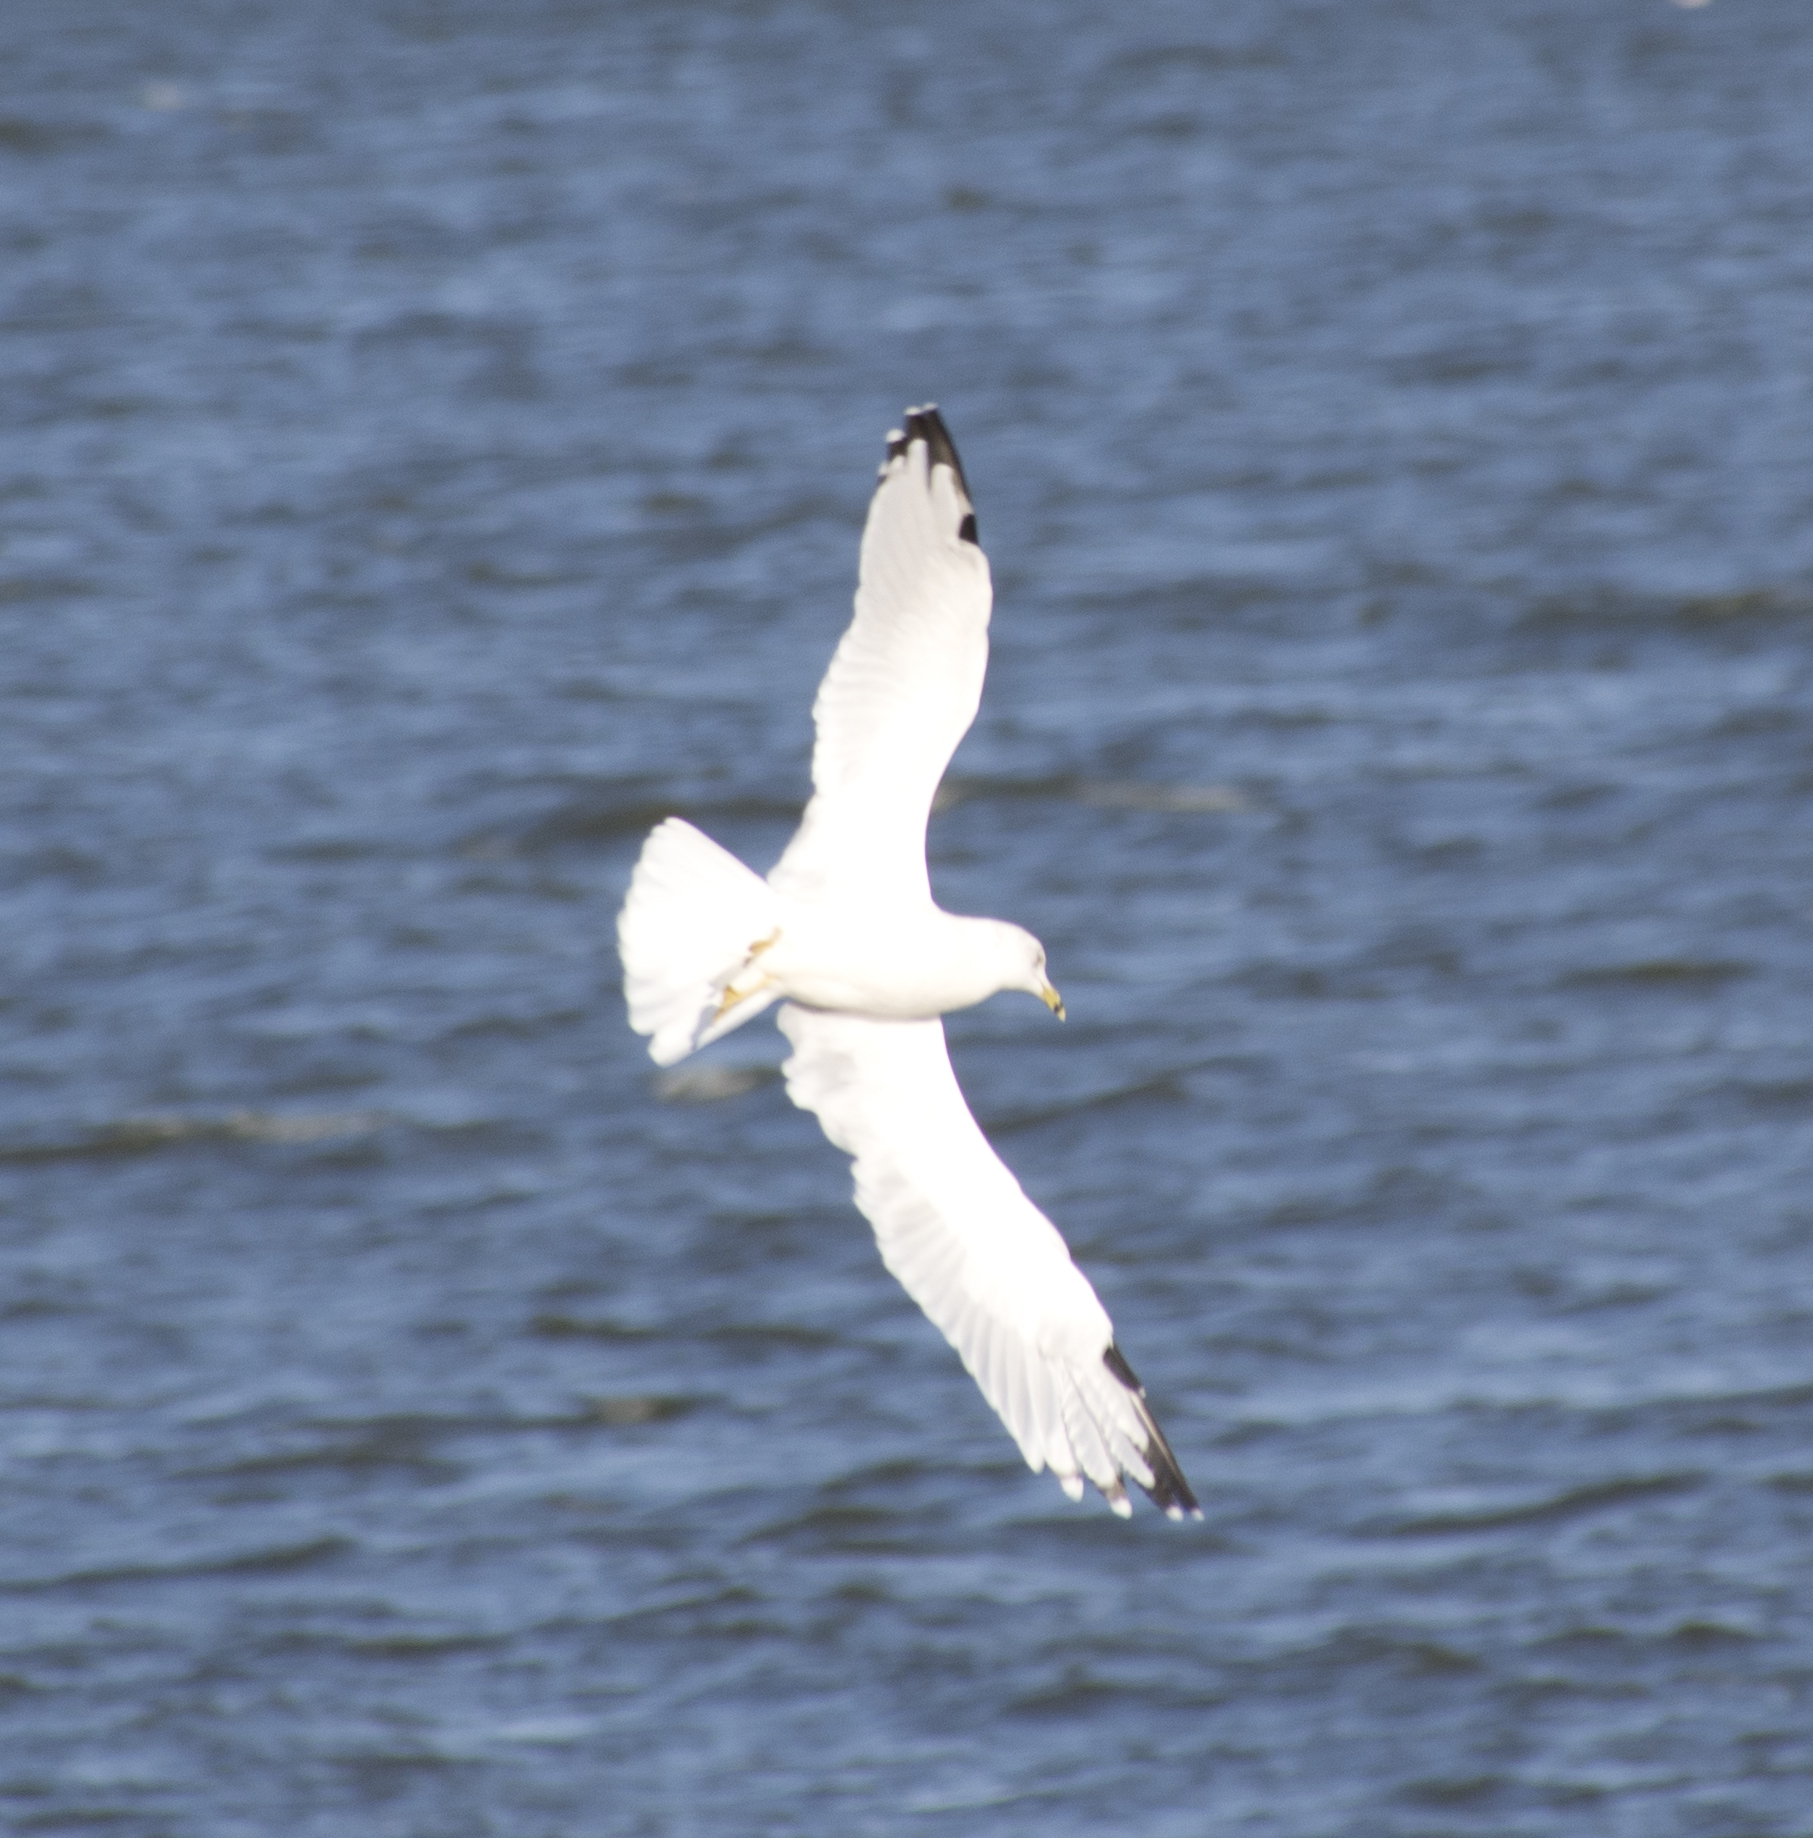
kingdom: Animalia
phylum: Chordata
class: Aves
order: Charadriiformes
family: Laridae
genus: Larus
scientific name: Larus delawarensis
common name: Ring-billed gull
